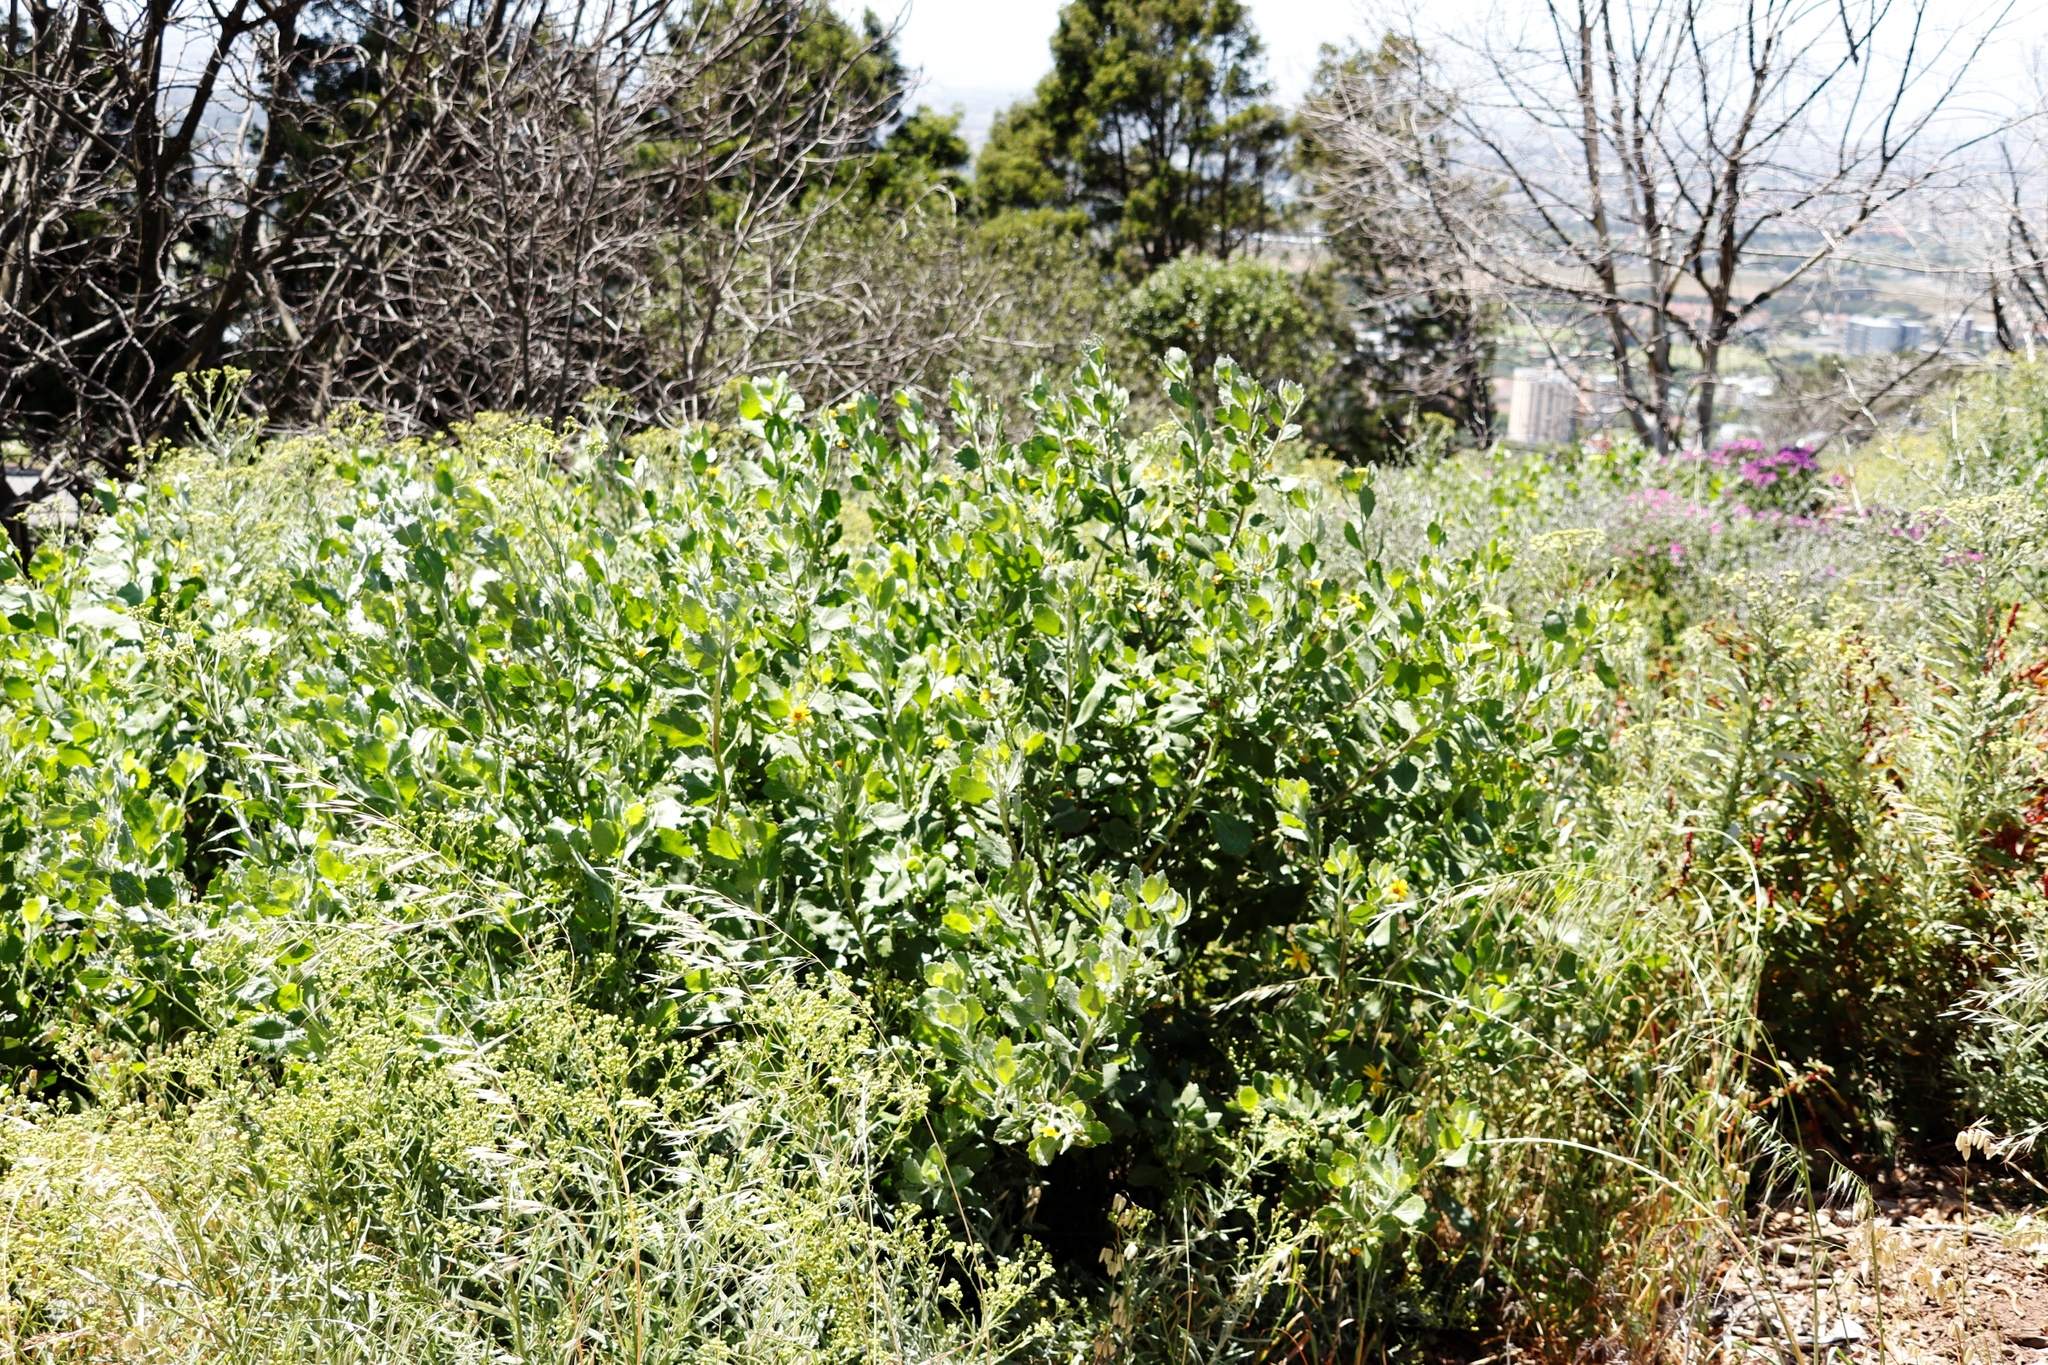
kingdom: Plantae
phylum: Tracheophyta
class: Magnoliopsida
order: Asterales
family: Asteraceae
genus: Osteospermum
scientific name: Osteospermum moniliferum
